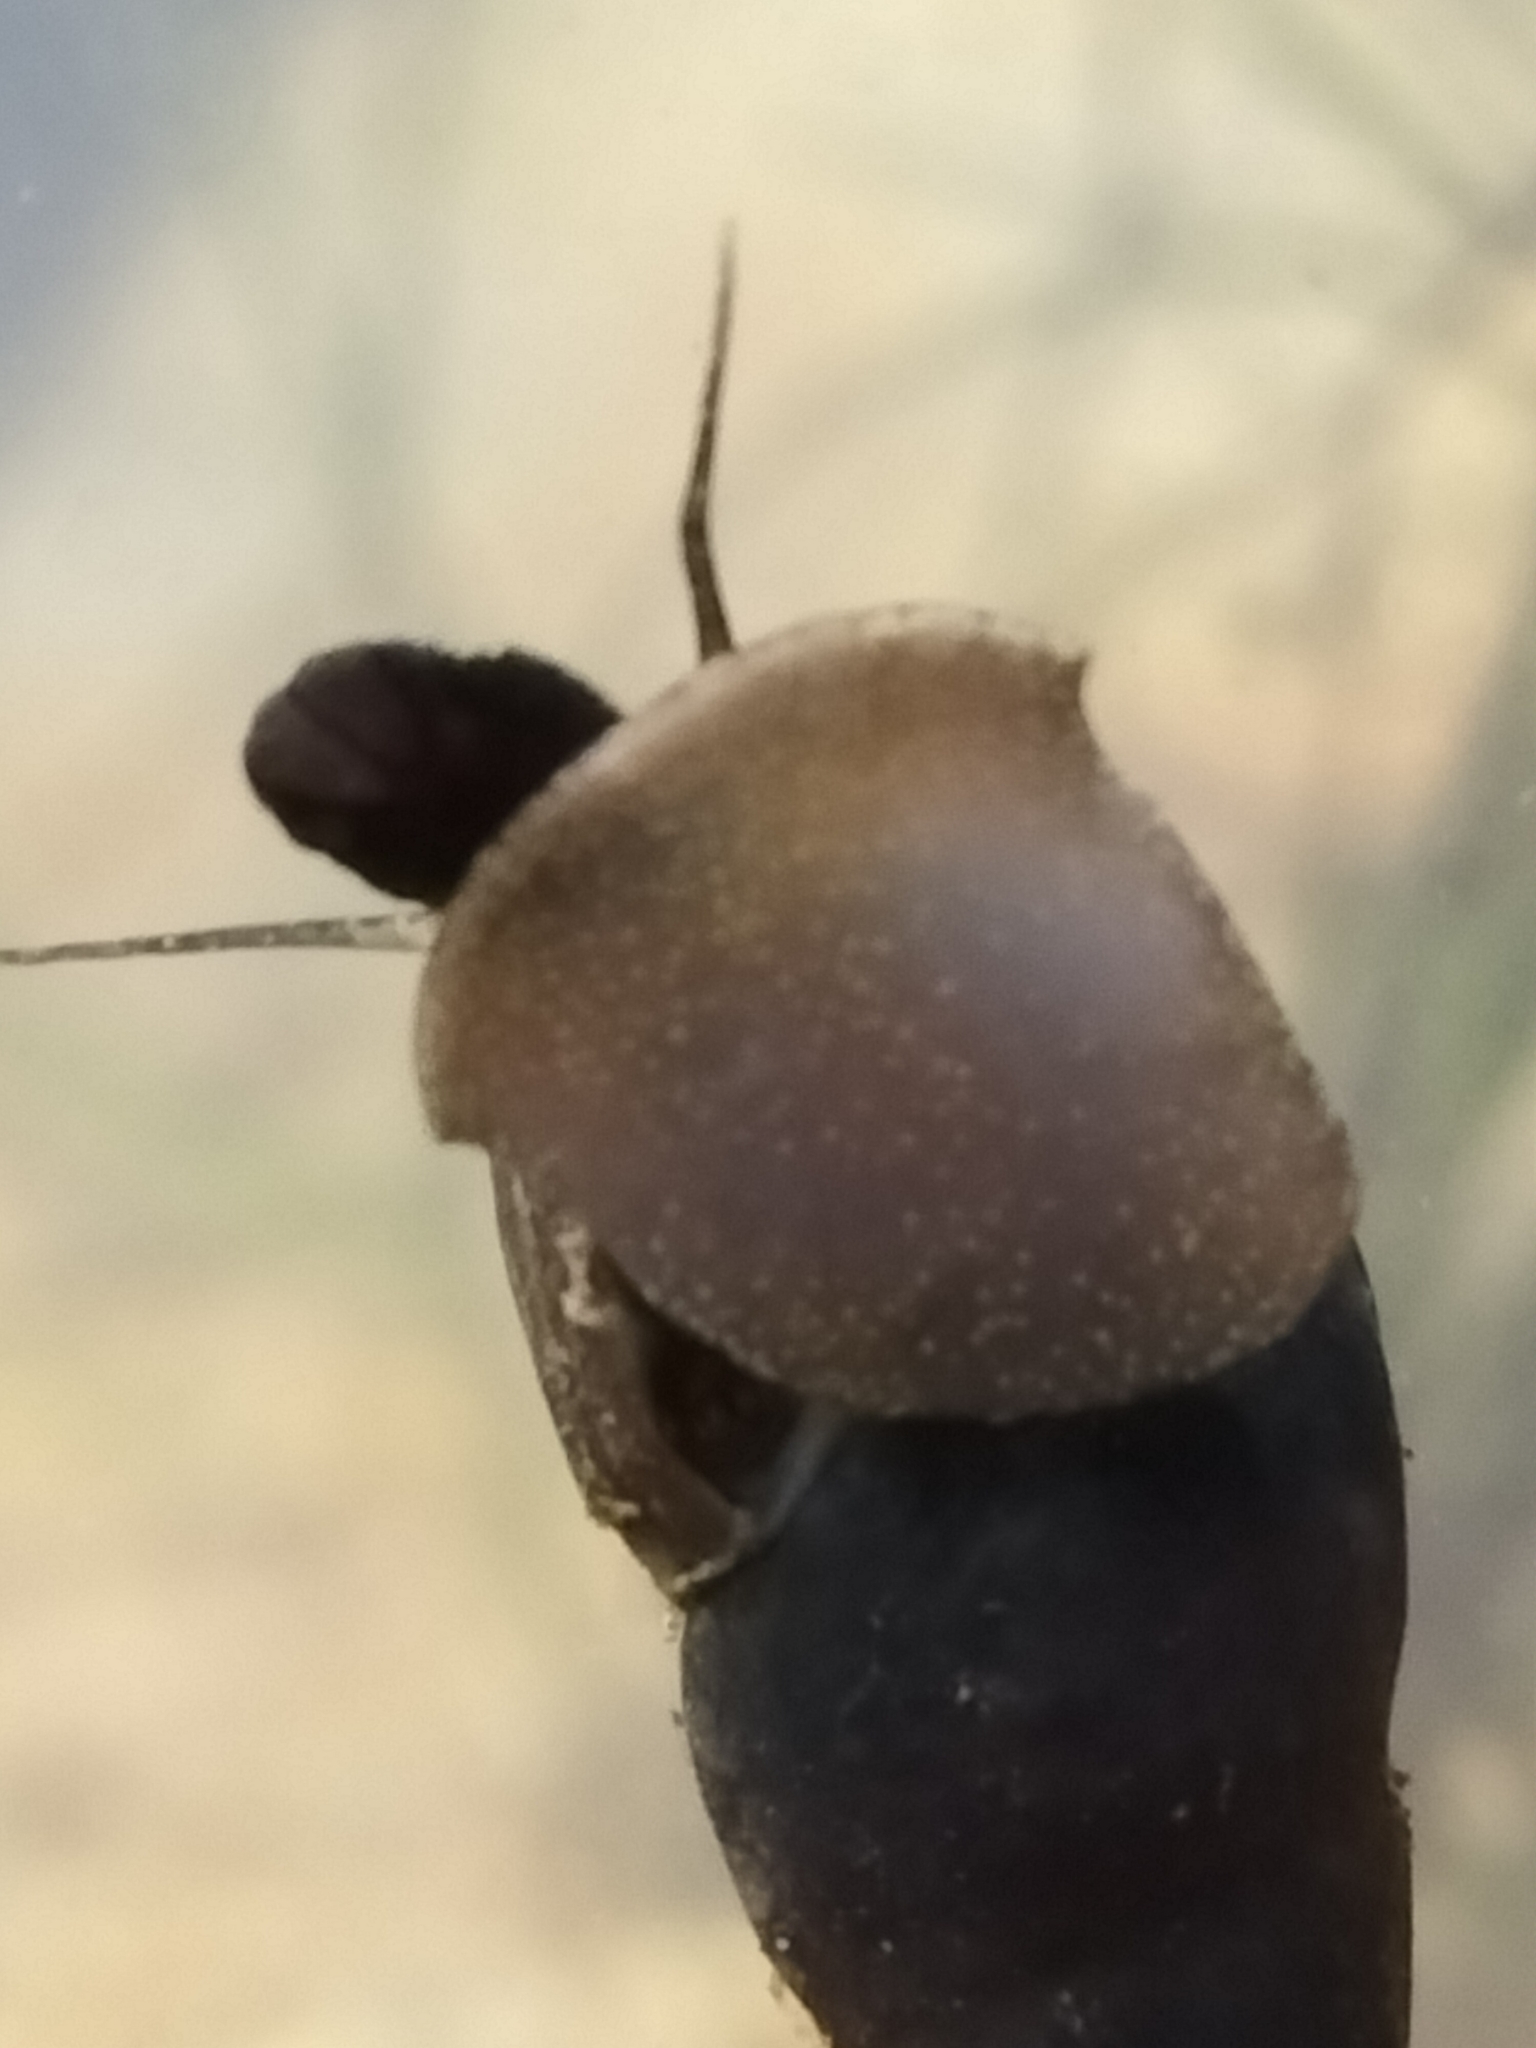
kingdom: Animalia
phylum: Mollusca
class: Gastropoda
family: Thiaridae
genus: Stenomelania
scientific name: Stenomelania denisoniensis
